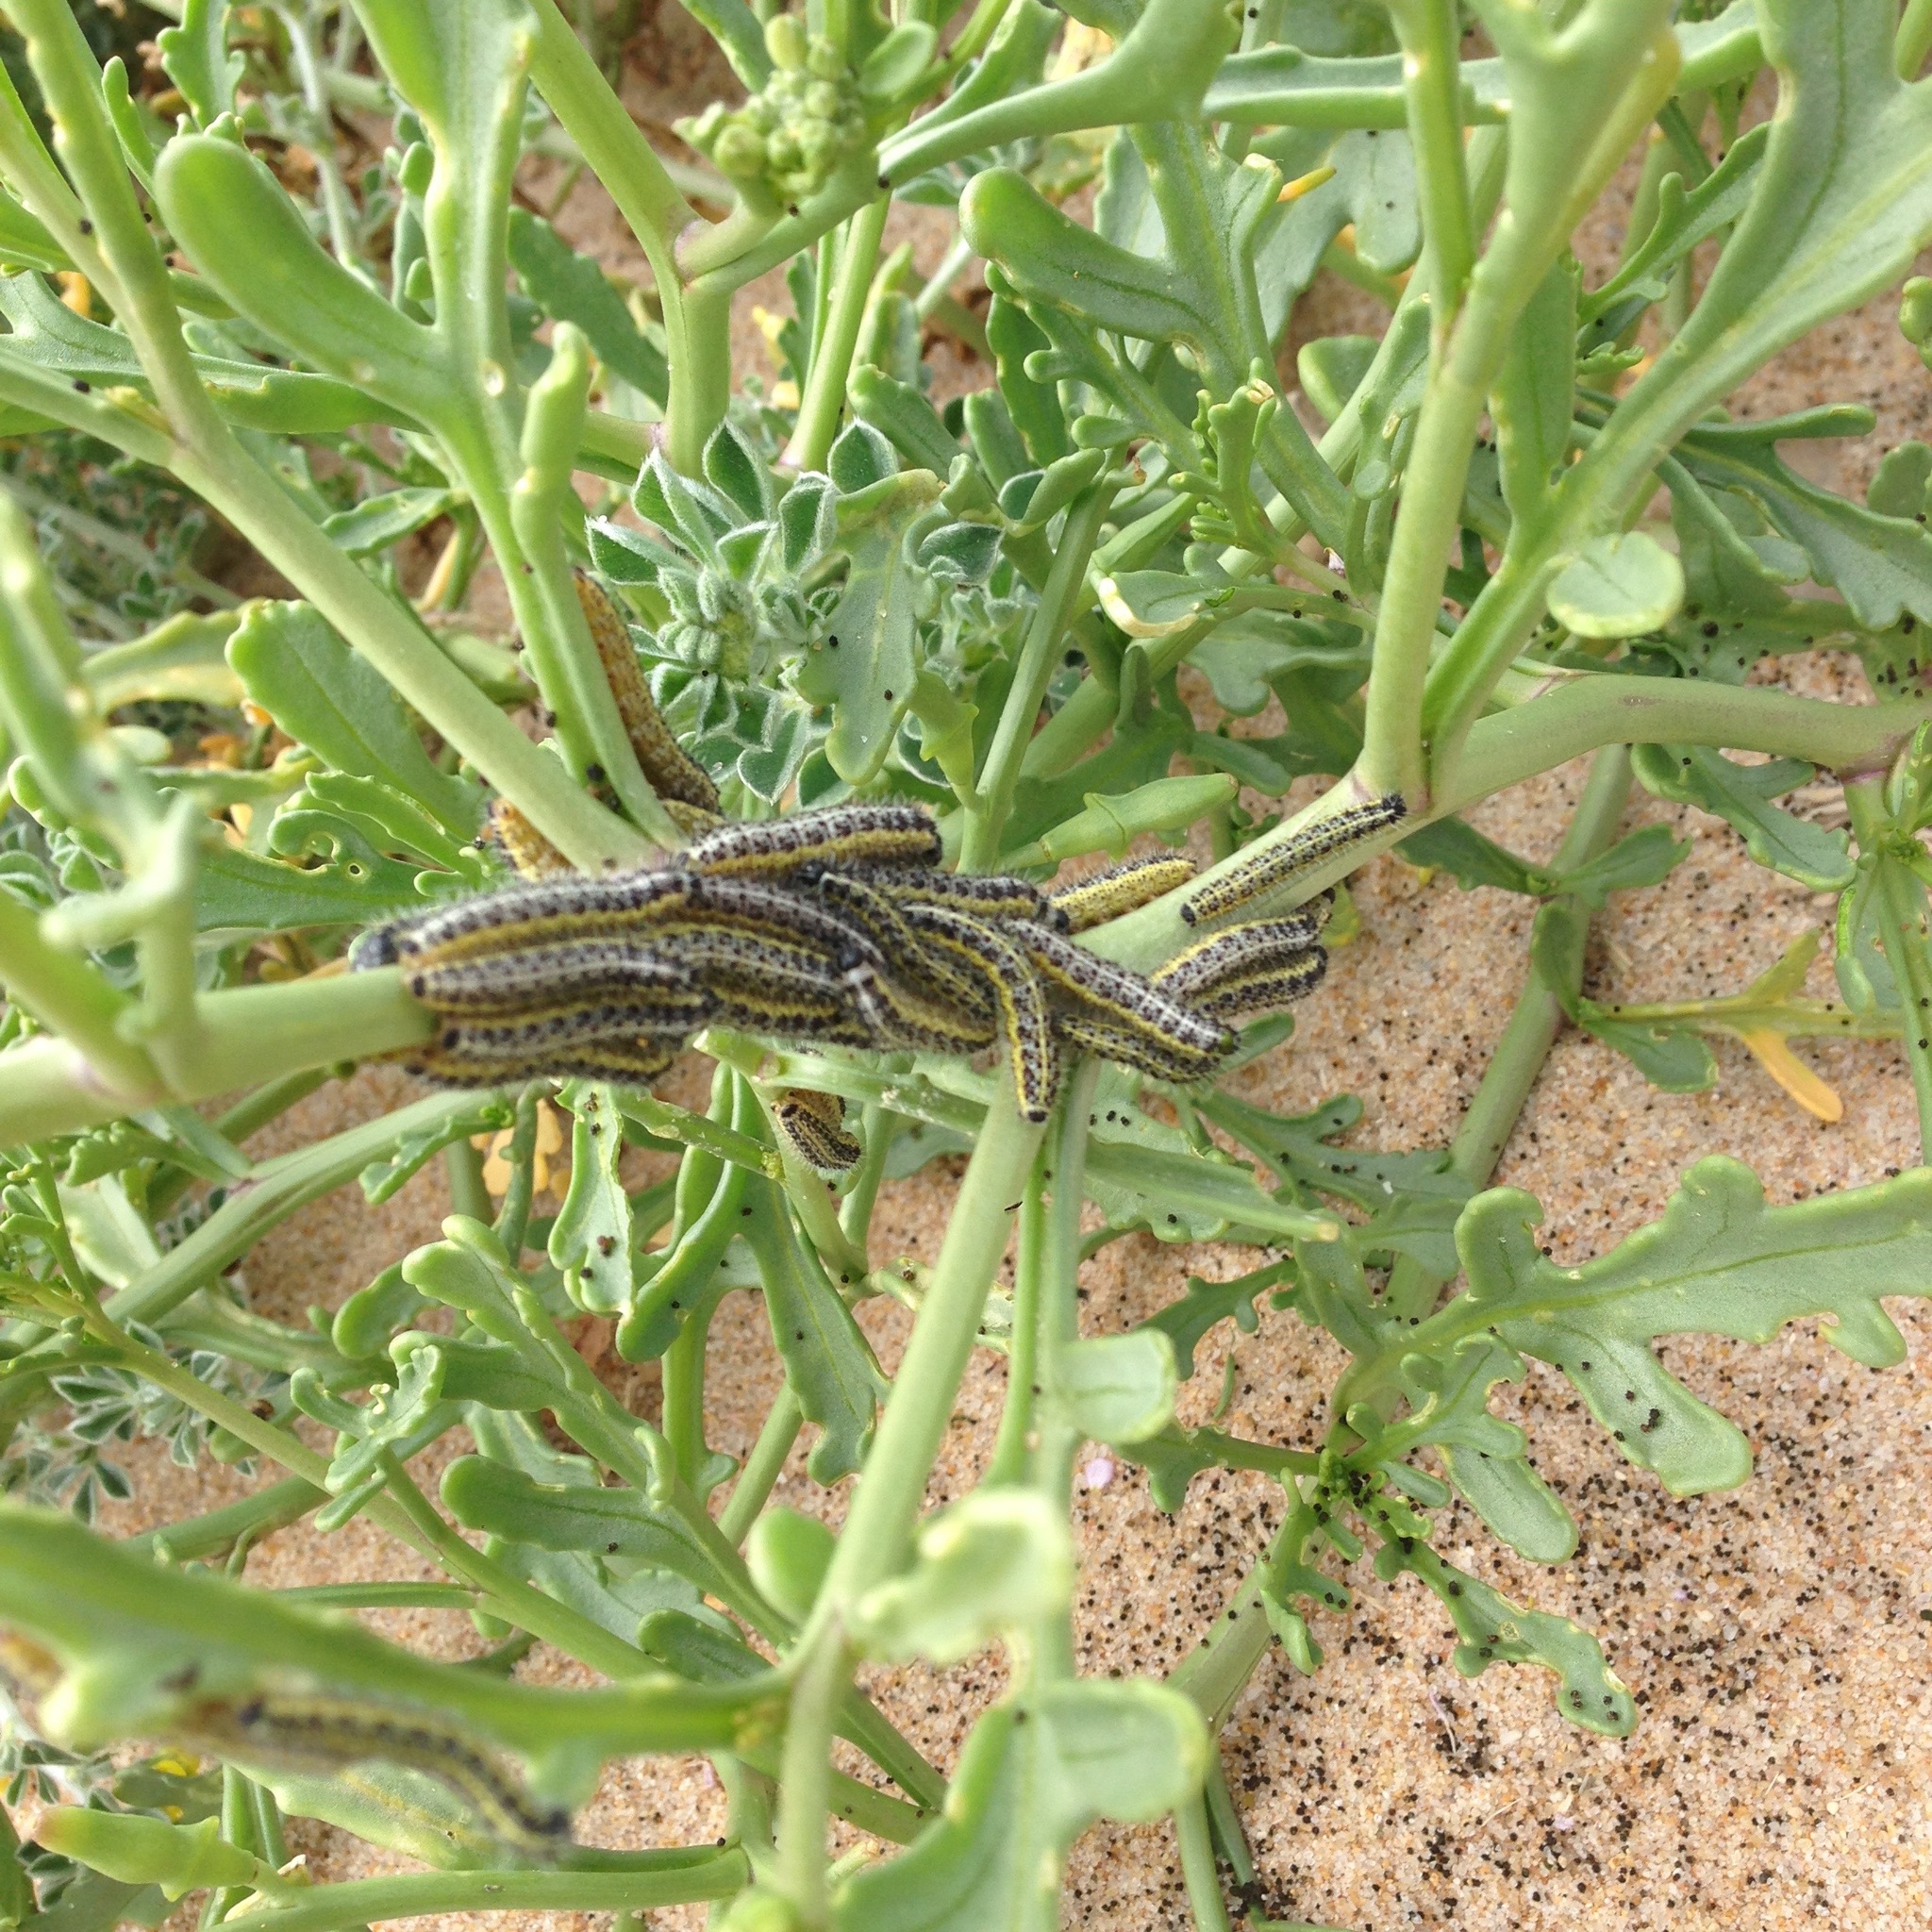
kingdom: Animalia
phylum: Arthropoda
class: Insecta
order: Lepidoptera
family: Pieridae
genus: Pieris
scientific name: Pieris brassicae
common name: Large white
